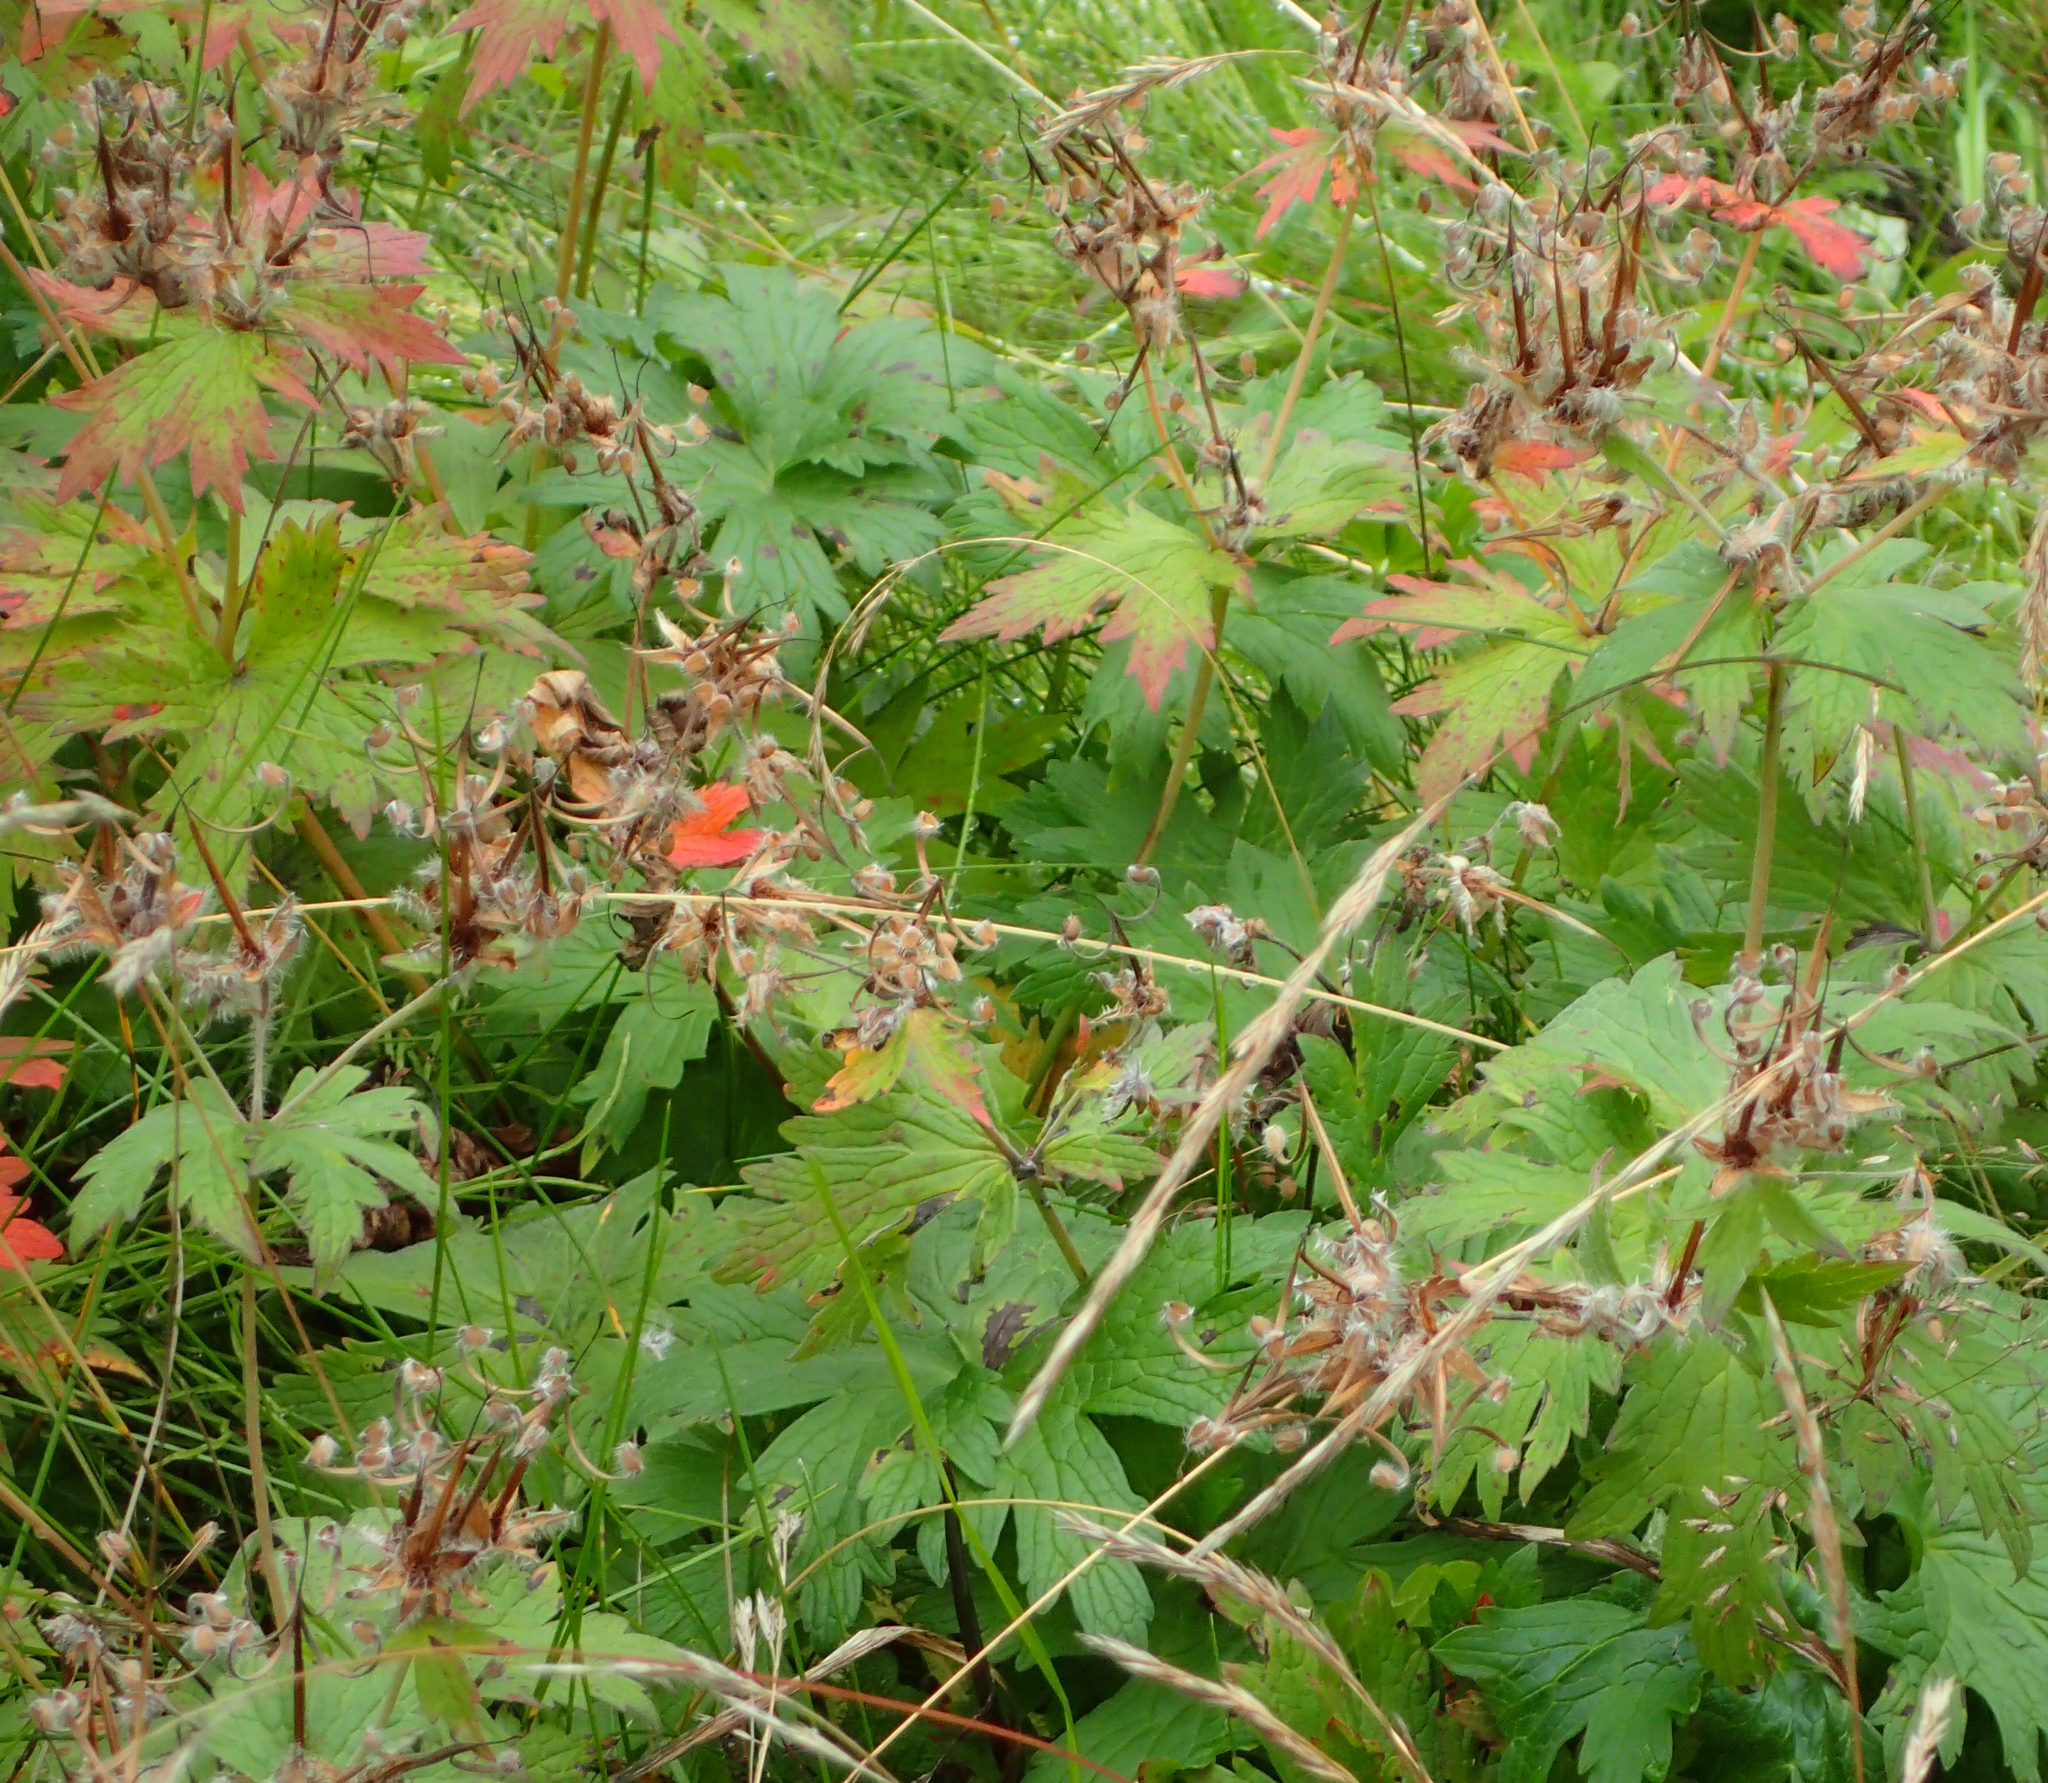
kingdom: Plantae
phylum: Tracheophyta
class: Magnoliopsida
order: Geraniales
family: Geraniaceae
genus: Geranium
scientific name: Geranium erianthum
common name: Northern crane's-bill
